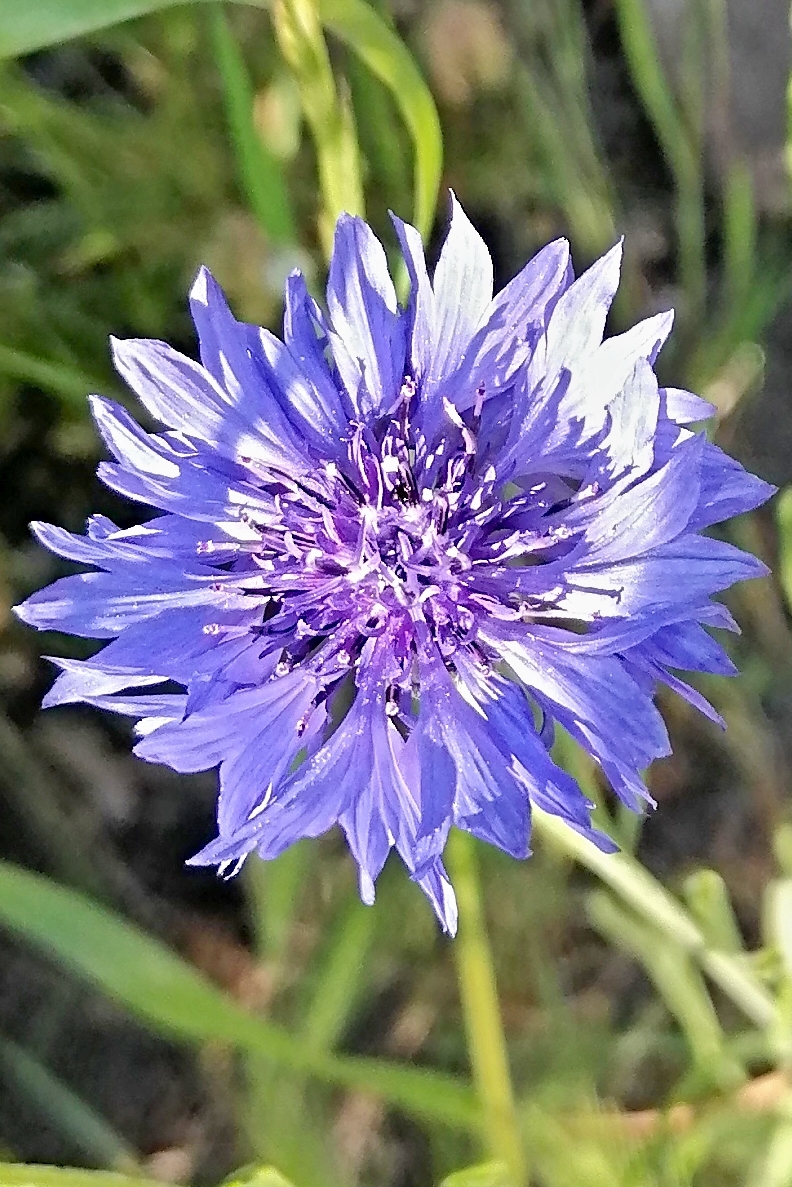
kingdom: Plantae
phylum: Tracheophyta
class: Magnoliopsida
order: Asterales
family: Asteraceae
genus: Centaurea
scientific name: Centaurea cyanus
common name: Cornflower
